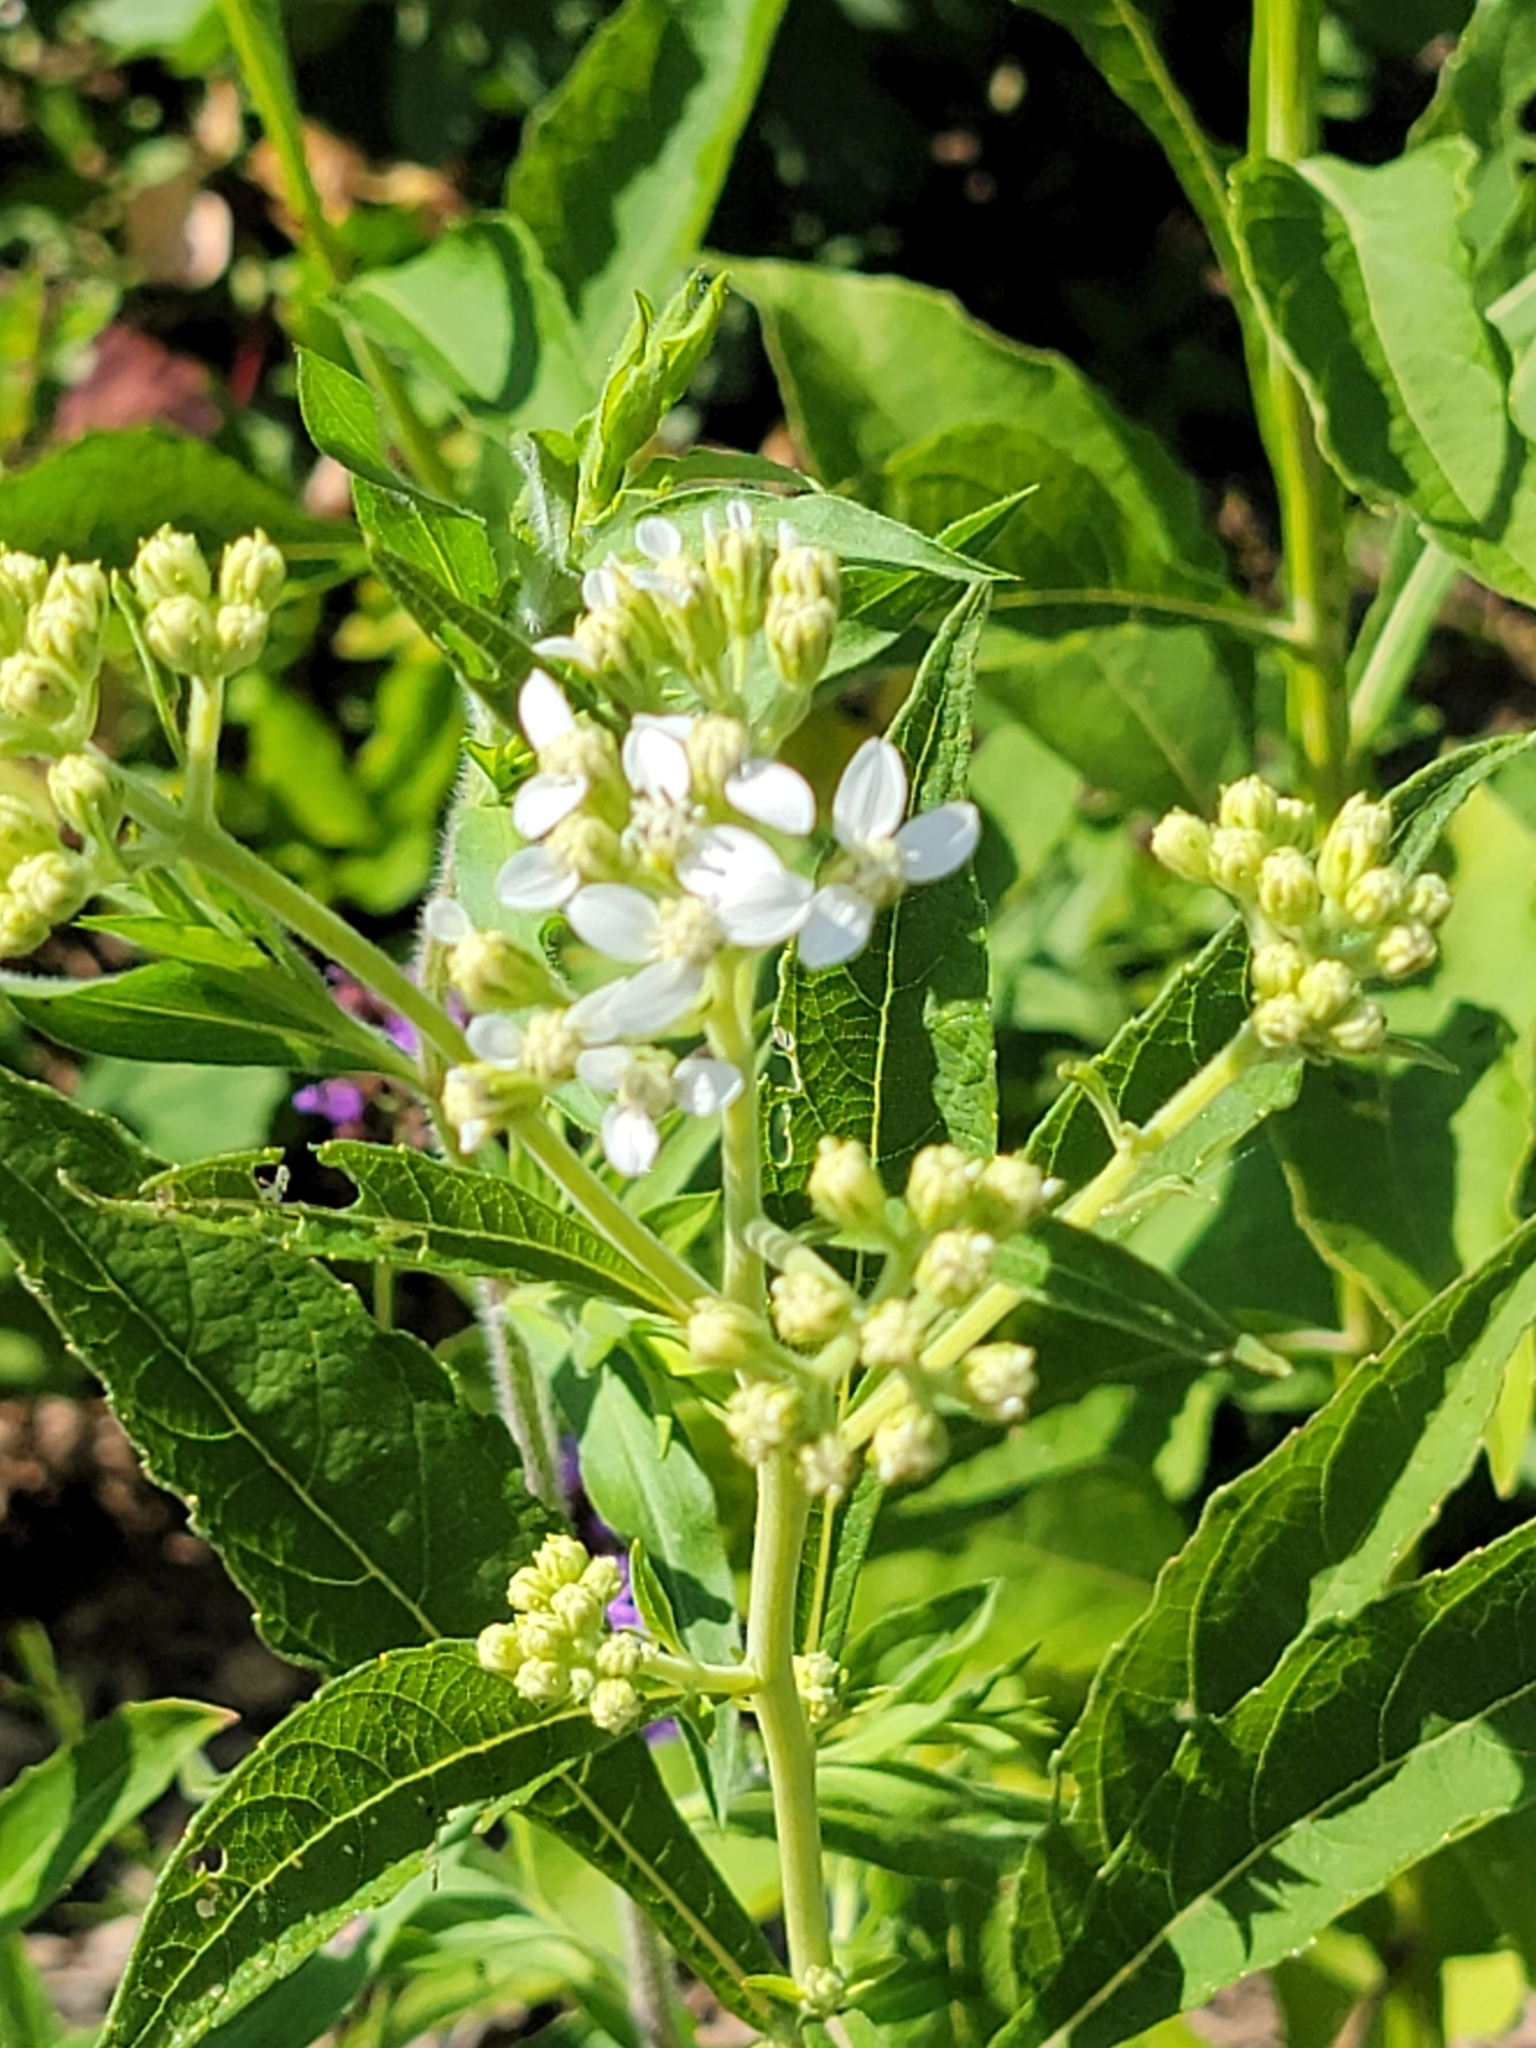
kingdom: Plantae
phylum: Tracheophyta
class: Magnoliopsida
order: Asterales
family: Asteraceae
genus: Verbesina
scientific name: Verbesina virginica
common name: Frostweed
